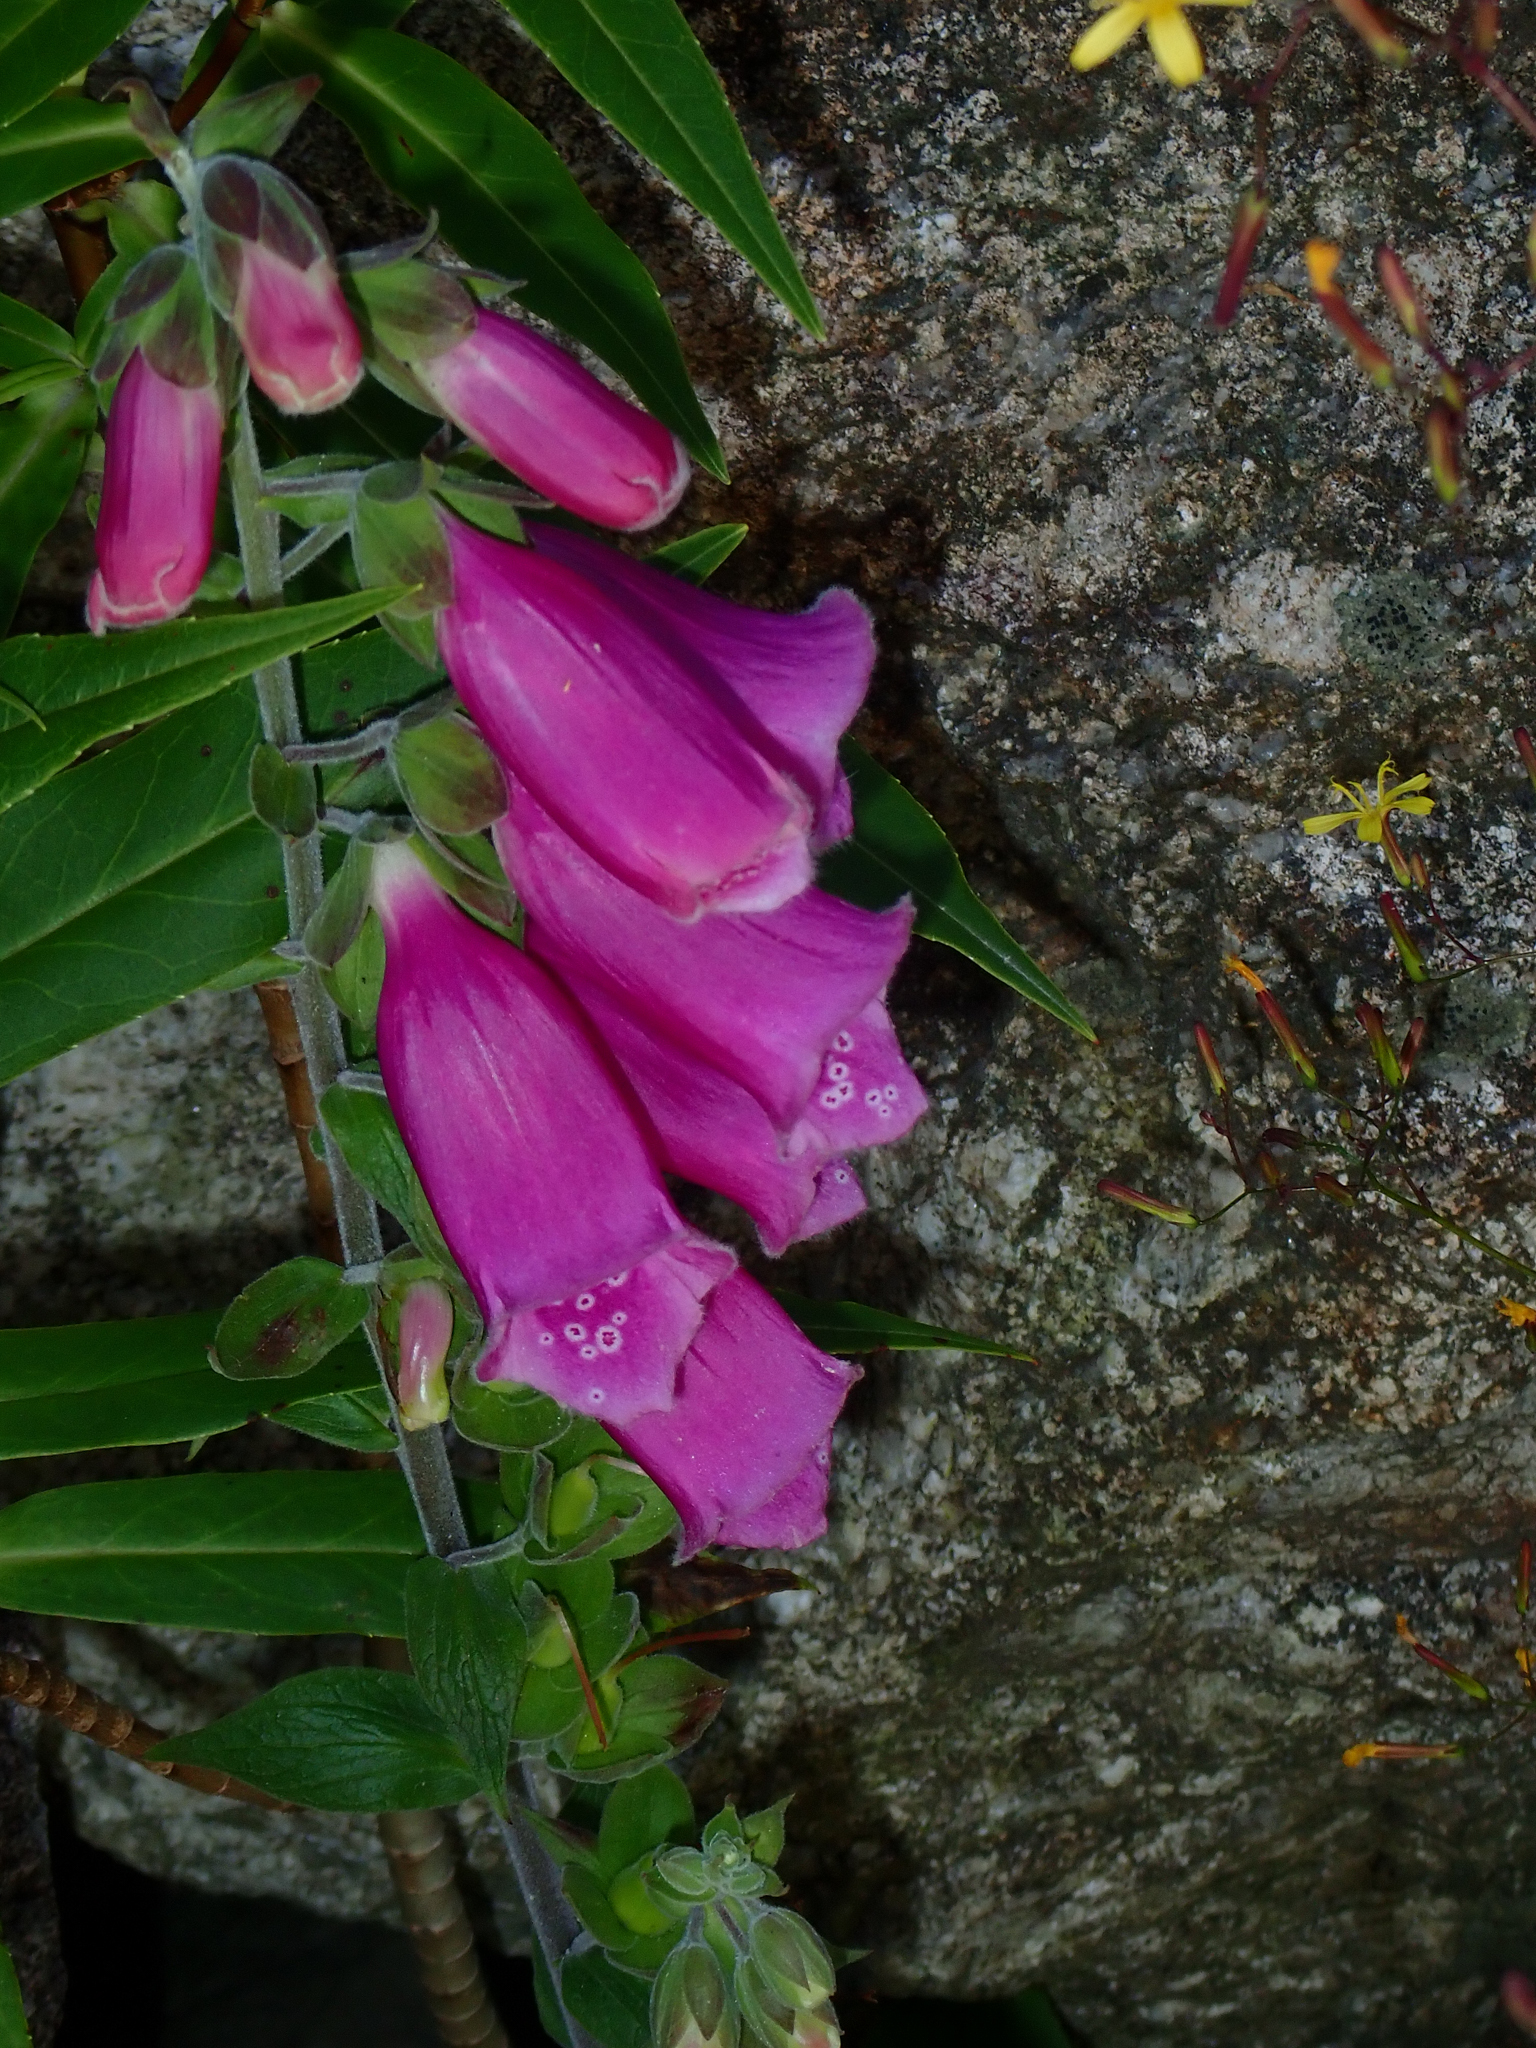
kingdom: Plantae
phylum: Tracheophyta
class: Magnoliopsida
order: Lamiales
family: Plantaginaceae
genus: Digitalis
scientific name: Digitalis purpurea
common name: Foxglove
